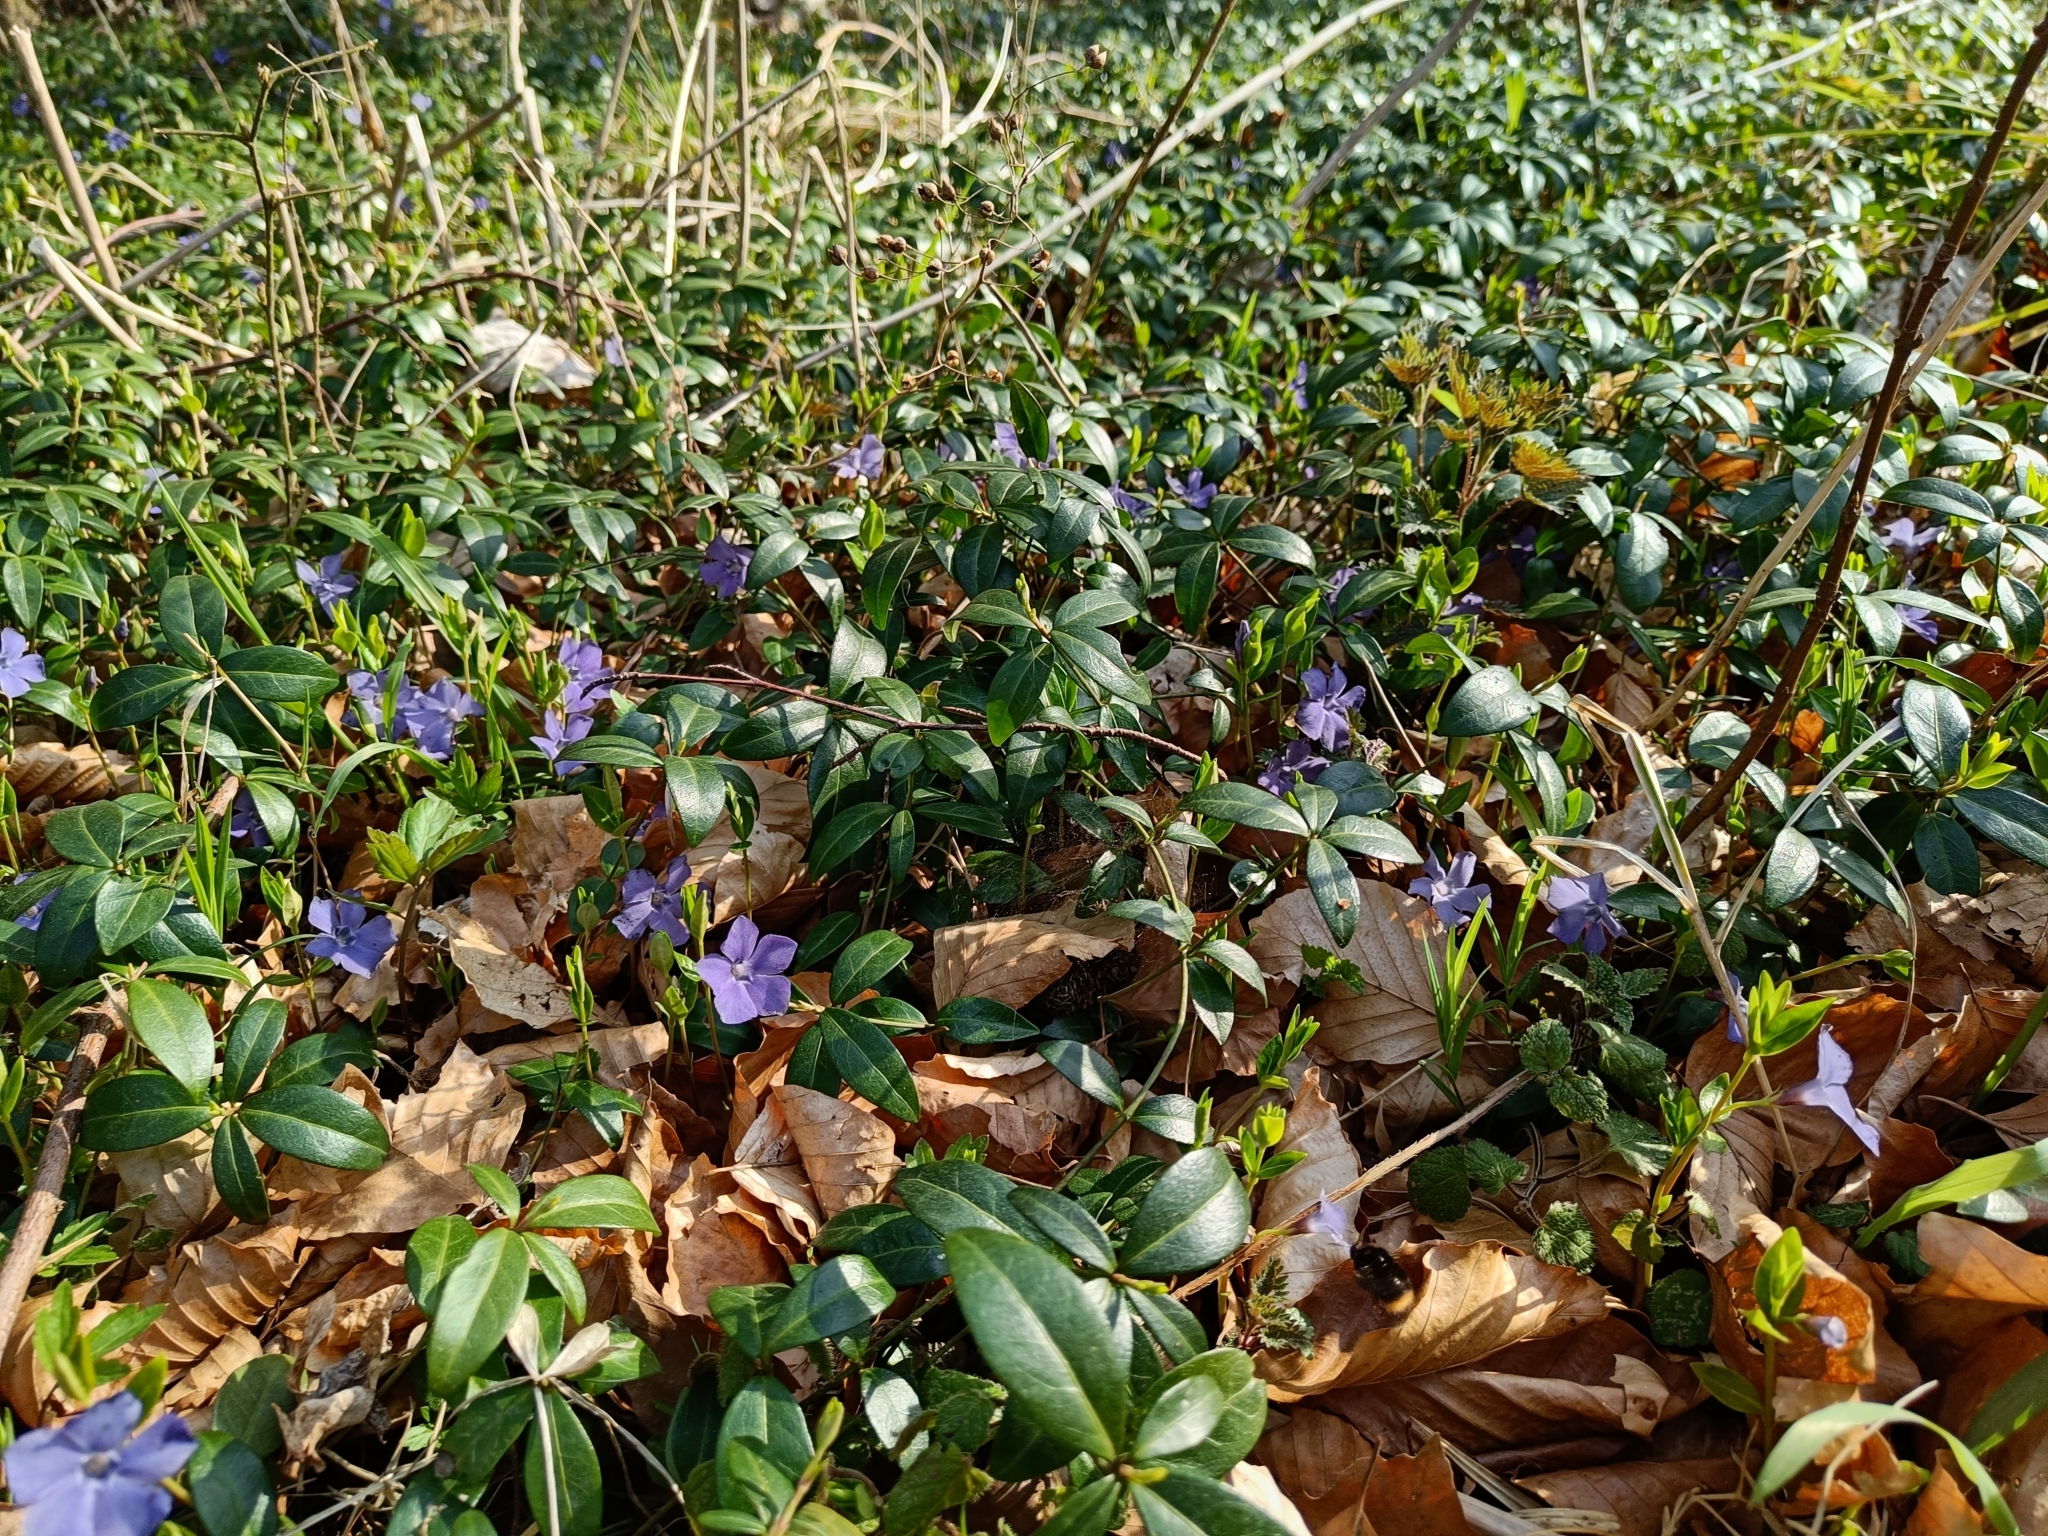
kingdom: Plantae
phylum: Tracheophyta
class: Magnoliopsida
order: Gentianales
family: Apocynaceae
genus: Vinca
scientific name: Vinca minor
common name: Lesser periwinkle
